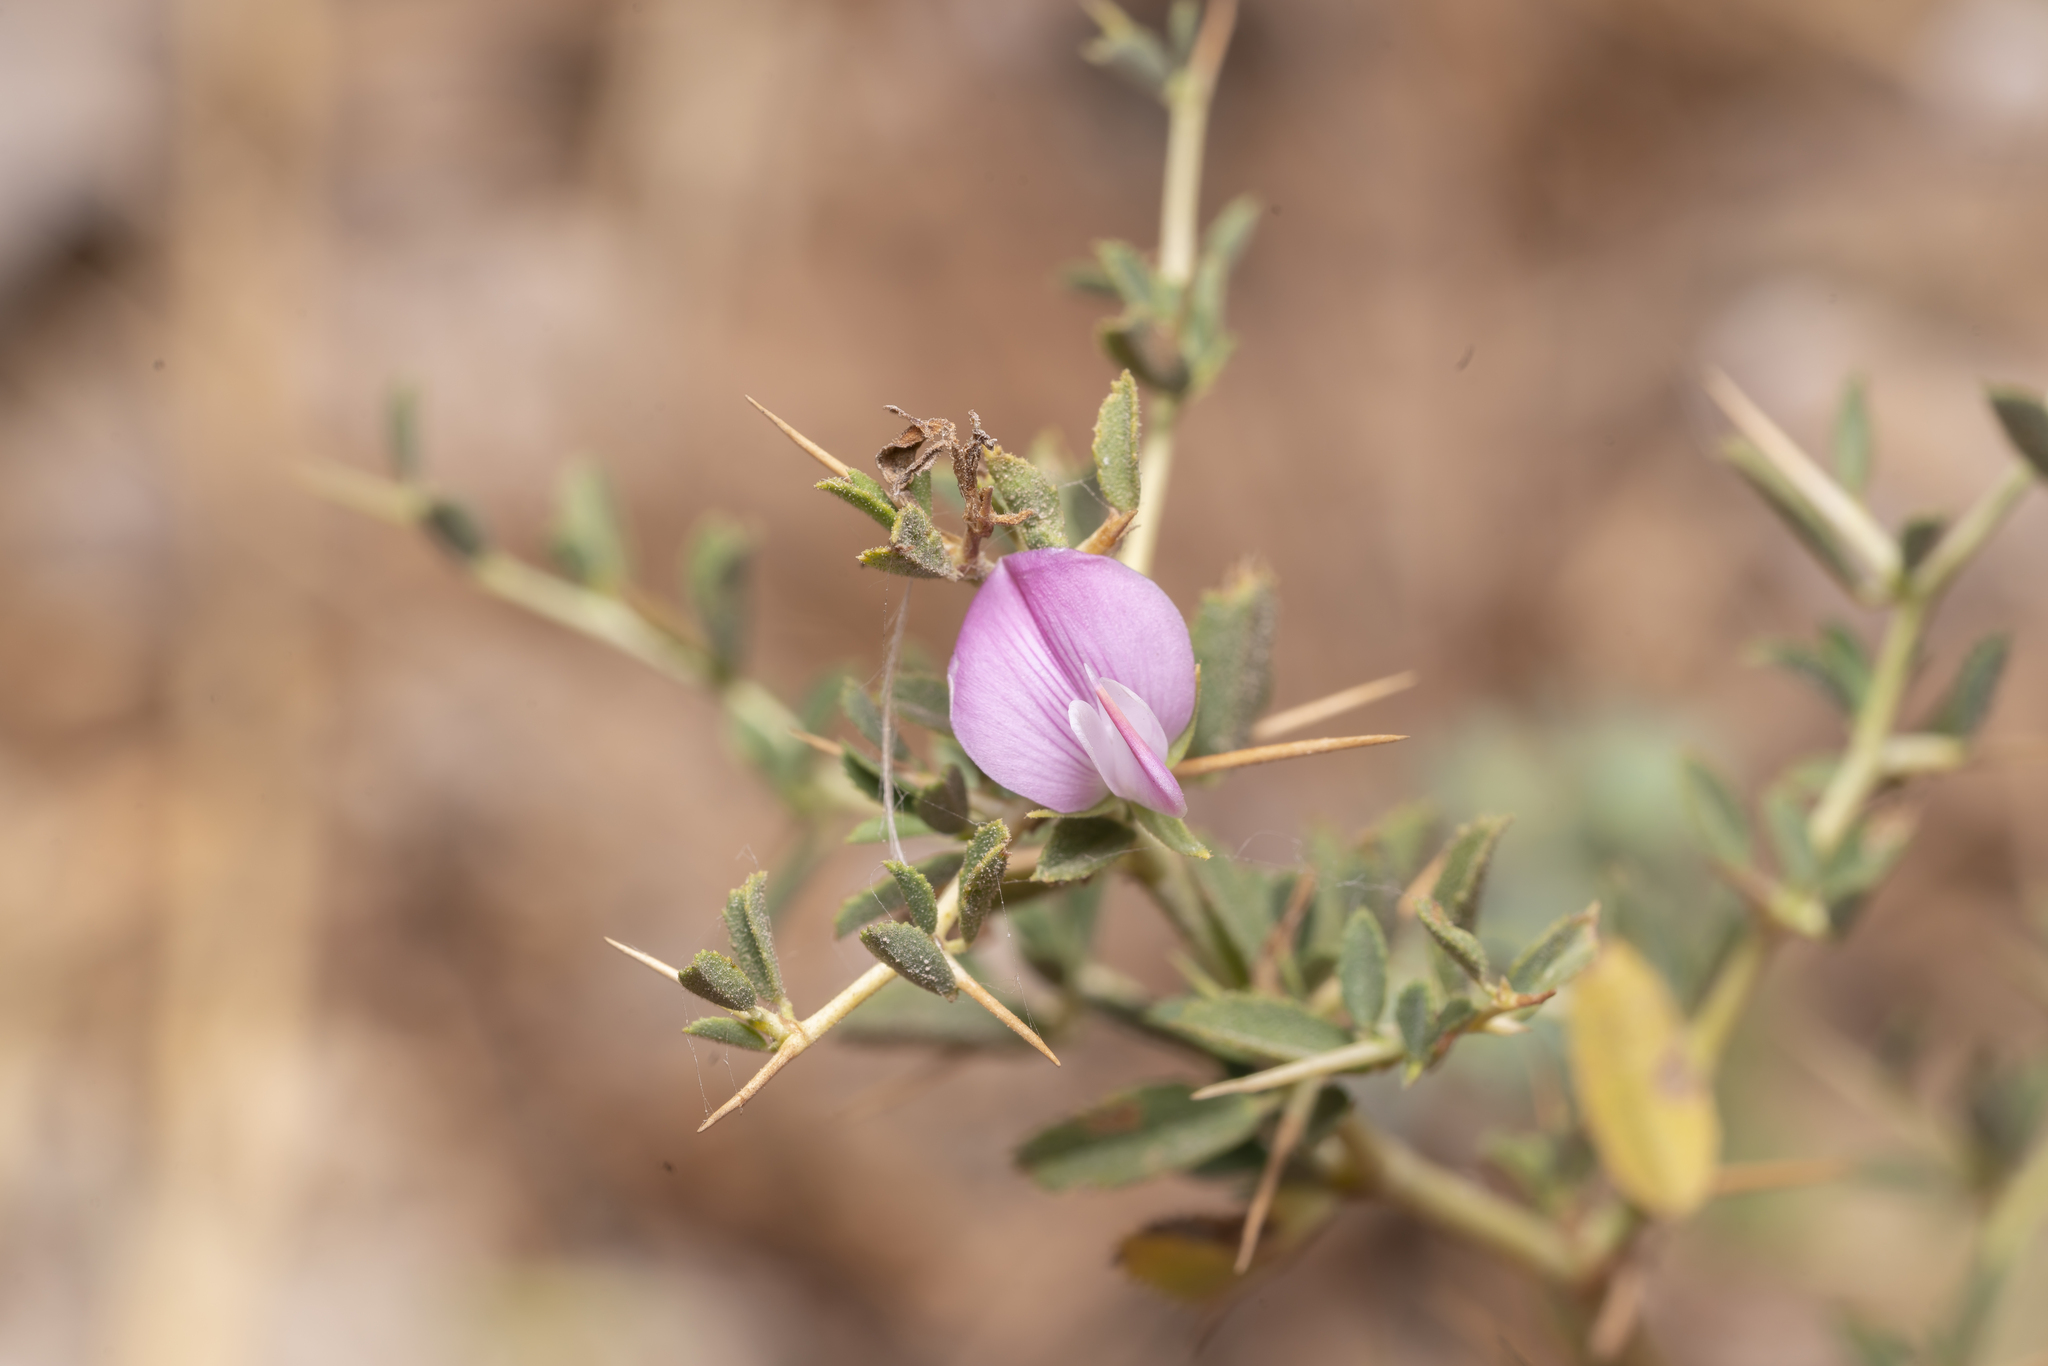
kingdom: Plantae
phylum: Tracheophyta
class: Magnoliopsida
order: Fabales
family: Fabaceae
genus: Ononis
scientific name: Ononis spinosa
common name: Spiny restharrow
